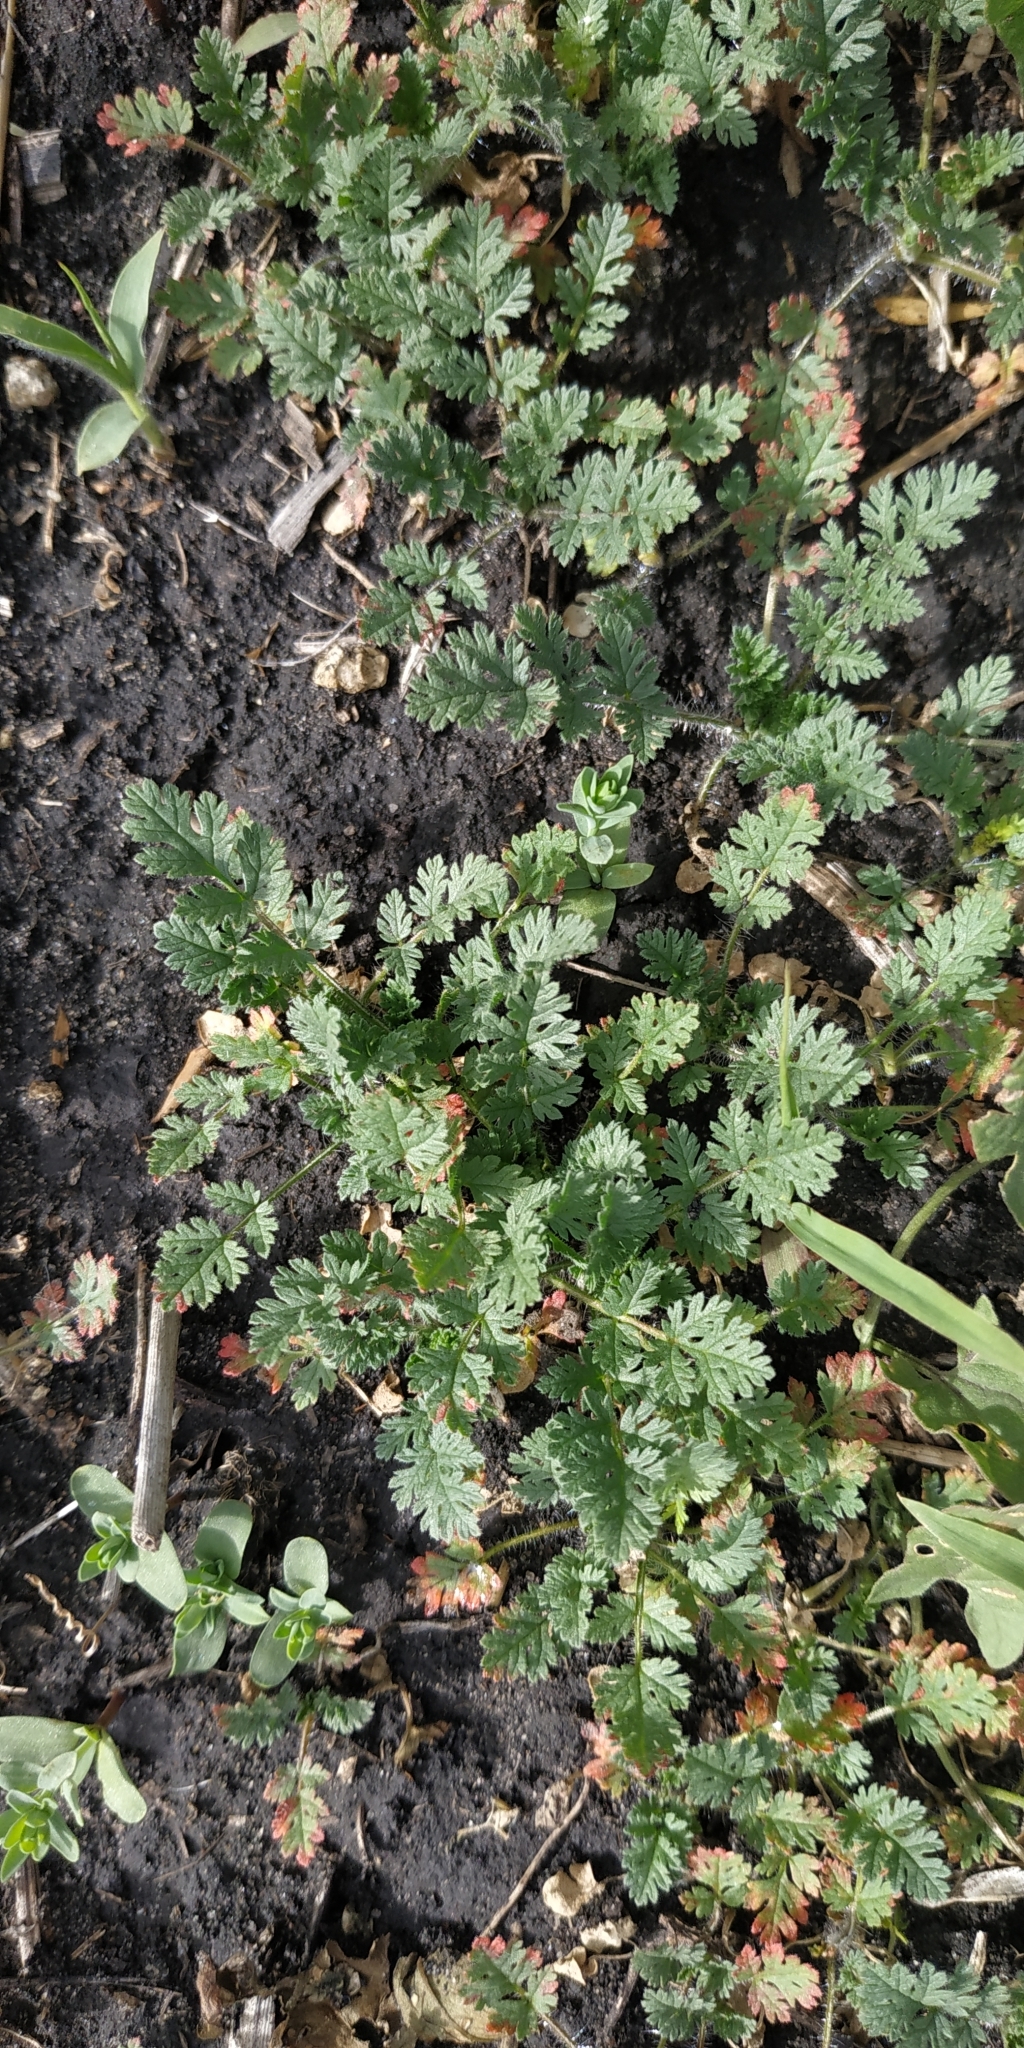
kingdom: Plantae
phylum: Tracheophyta
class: Magnoliopsida
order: Geraniales
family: Geraniaceae
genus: Erodium
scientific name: Erodium cicutarium
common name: Common stork's-bill
